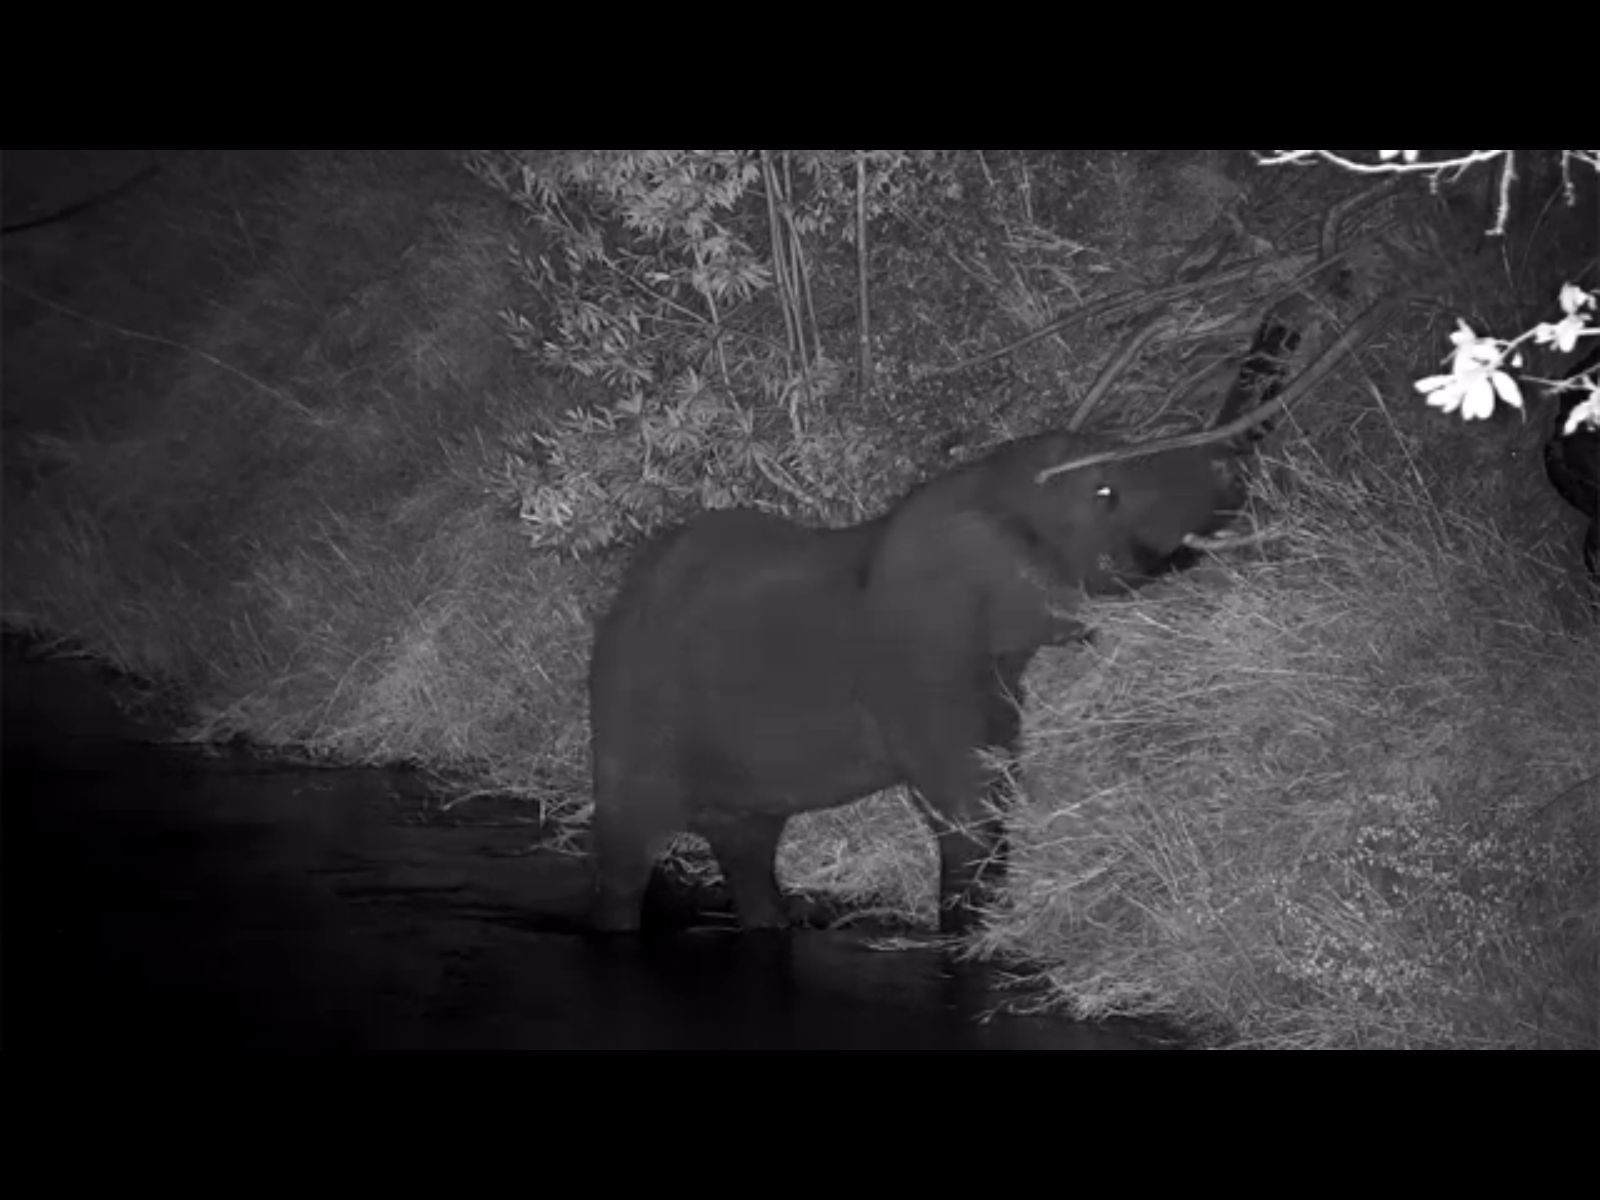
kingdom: Animalia
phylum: Chordata
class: Mammalia
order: Proboscidea
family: Elephantidae
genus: Loxodonta
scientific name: Loxodonta africana
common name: African elephant
